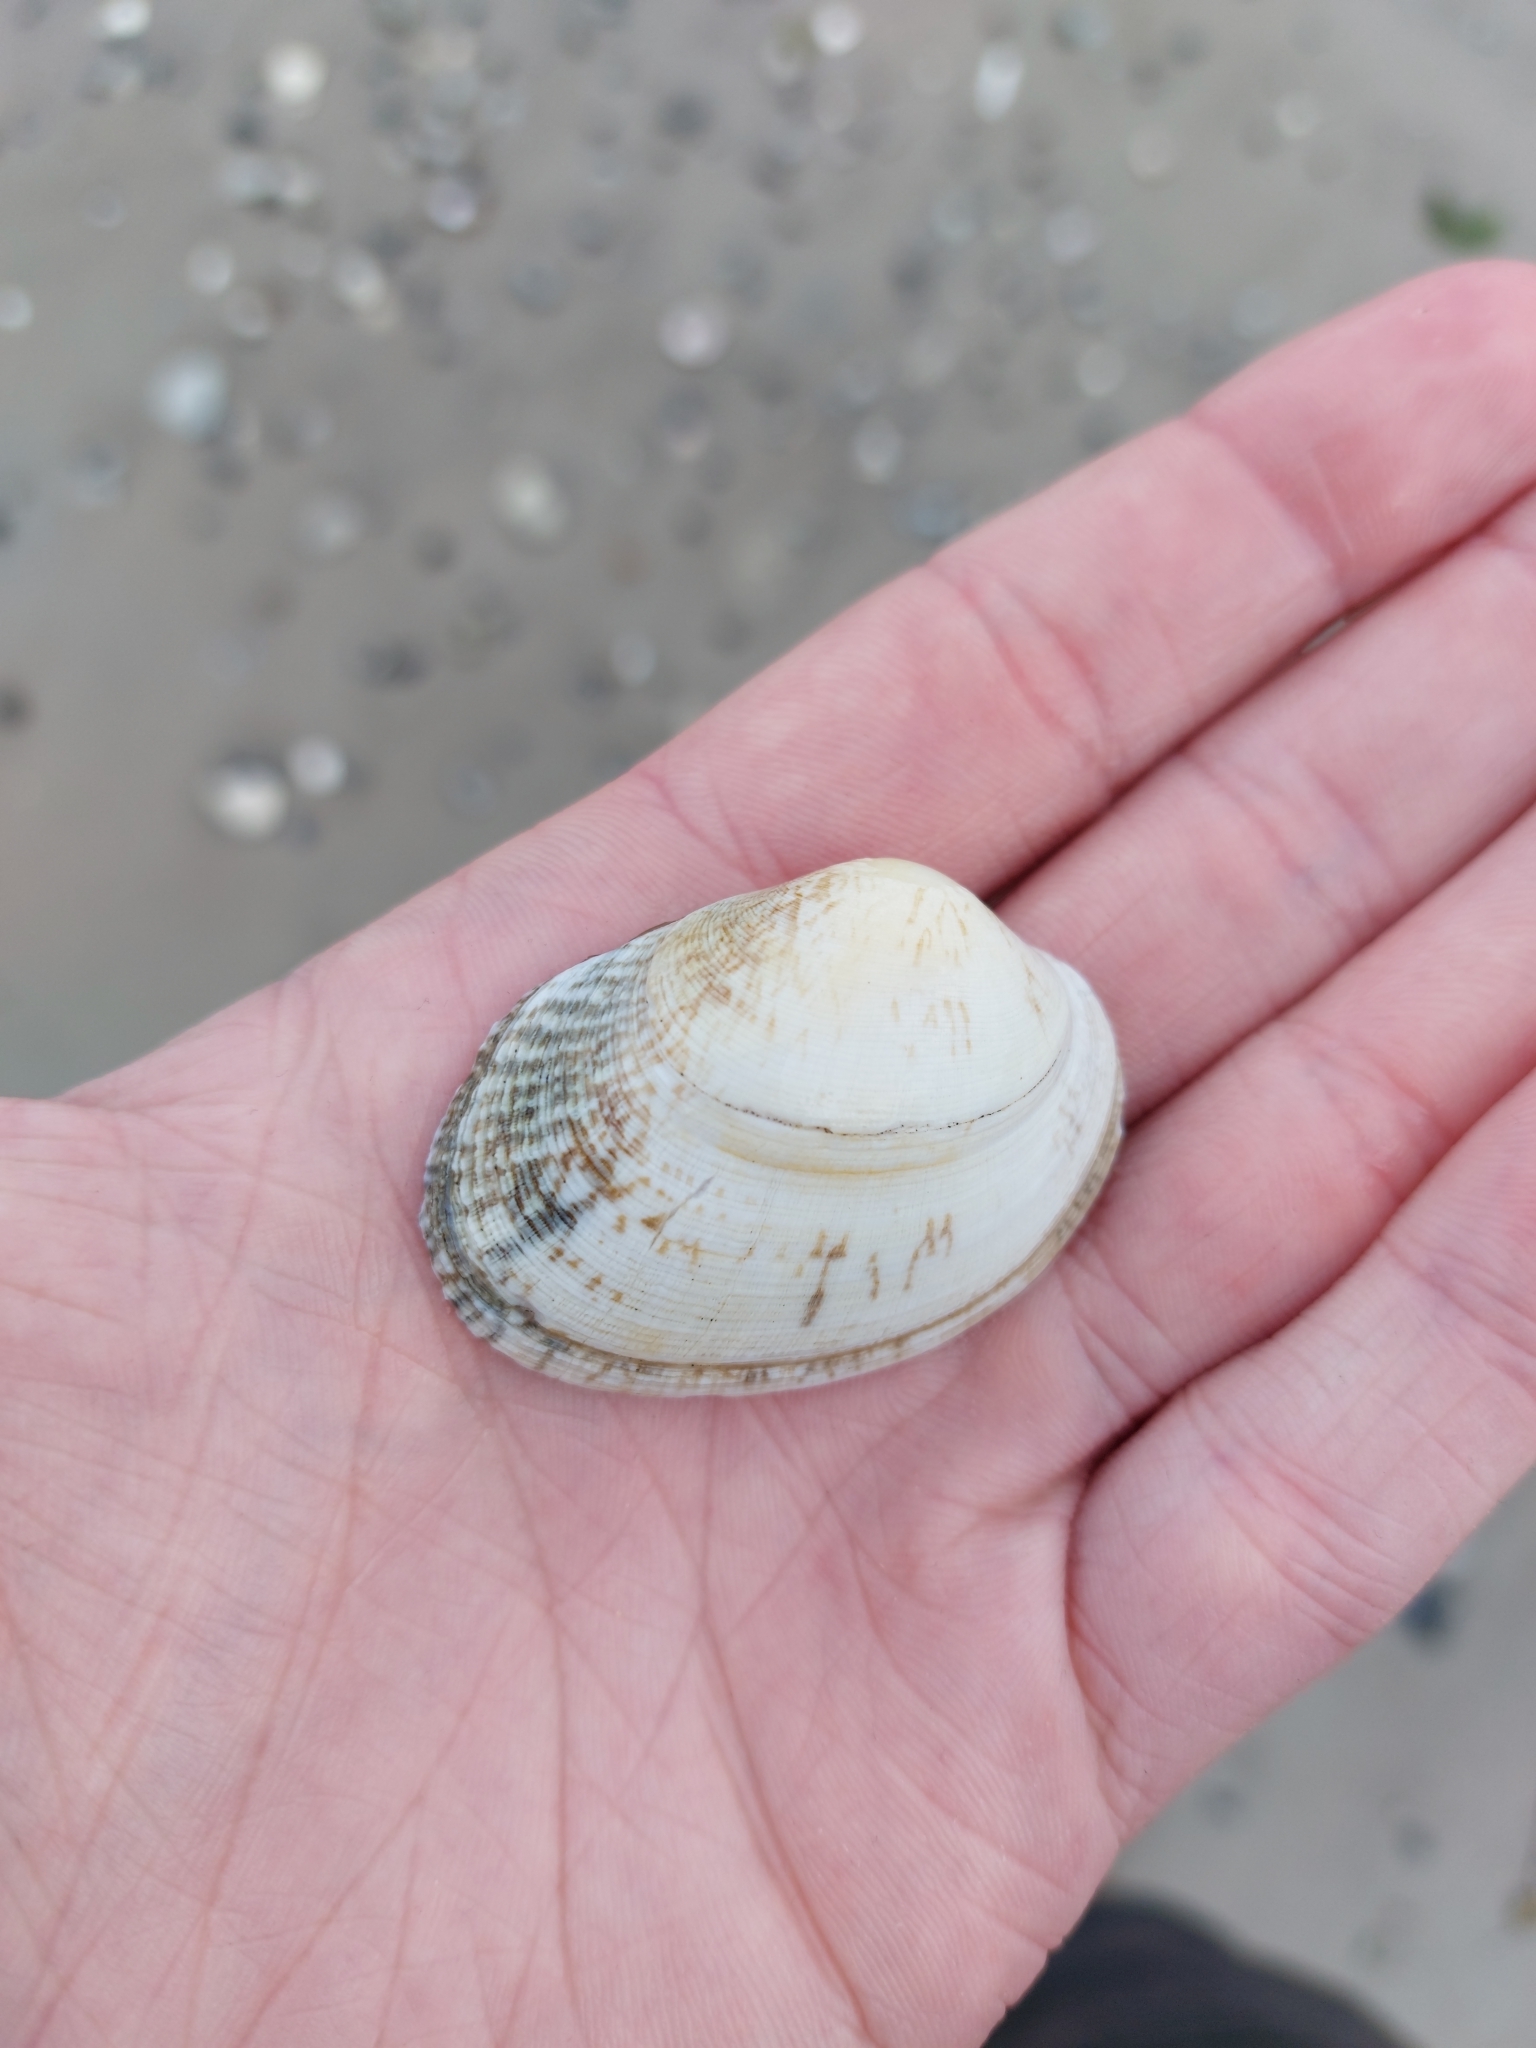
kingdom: Animalia
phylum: Mollusca
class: Bivalvia
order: Venerida
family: Veneridae
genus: Venerupis
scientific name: Venerupis corrugata
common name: Pullet carpet shell
